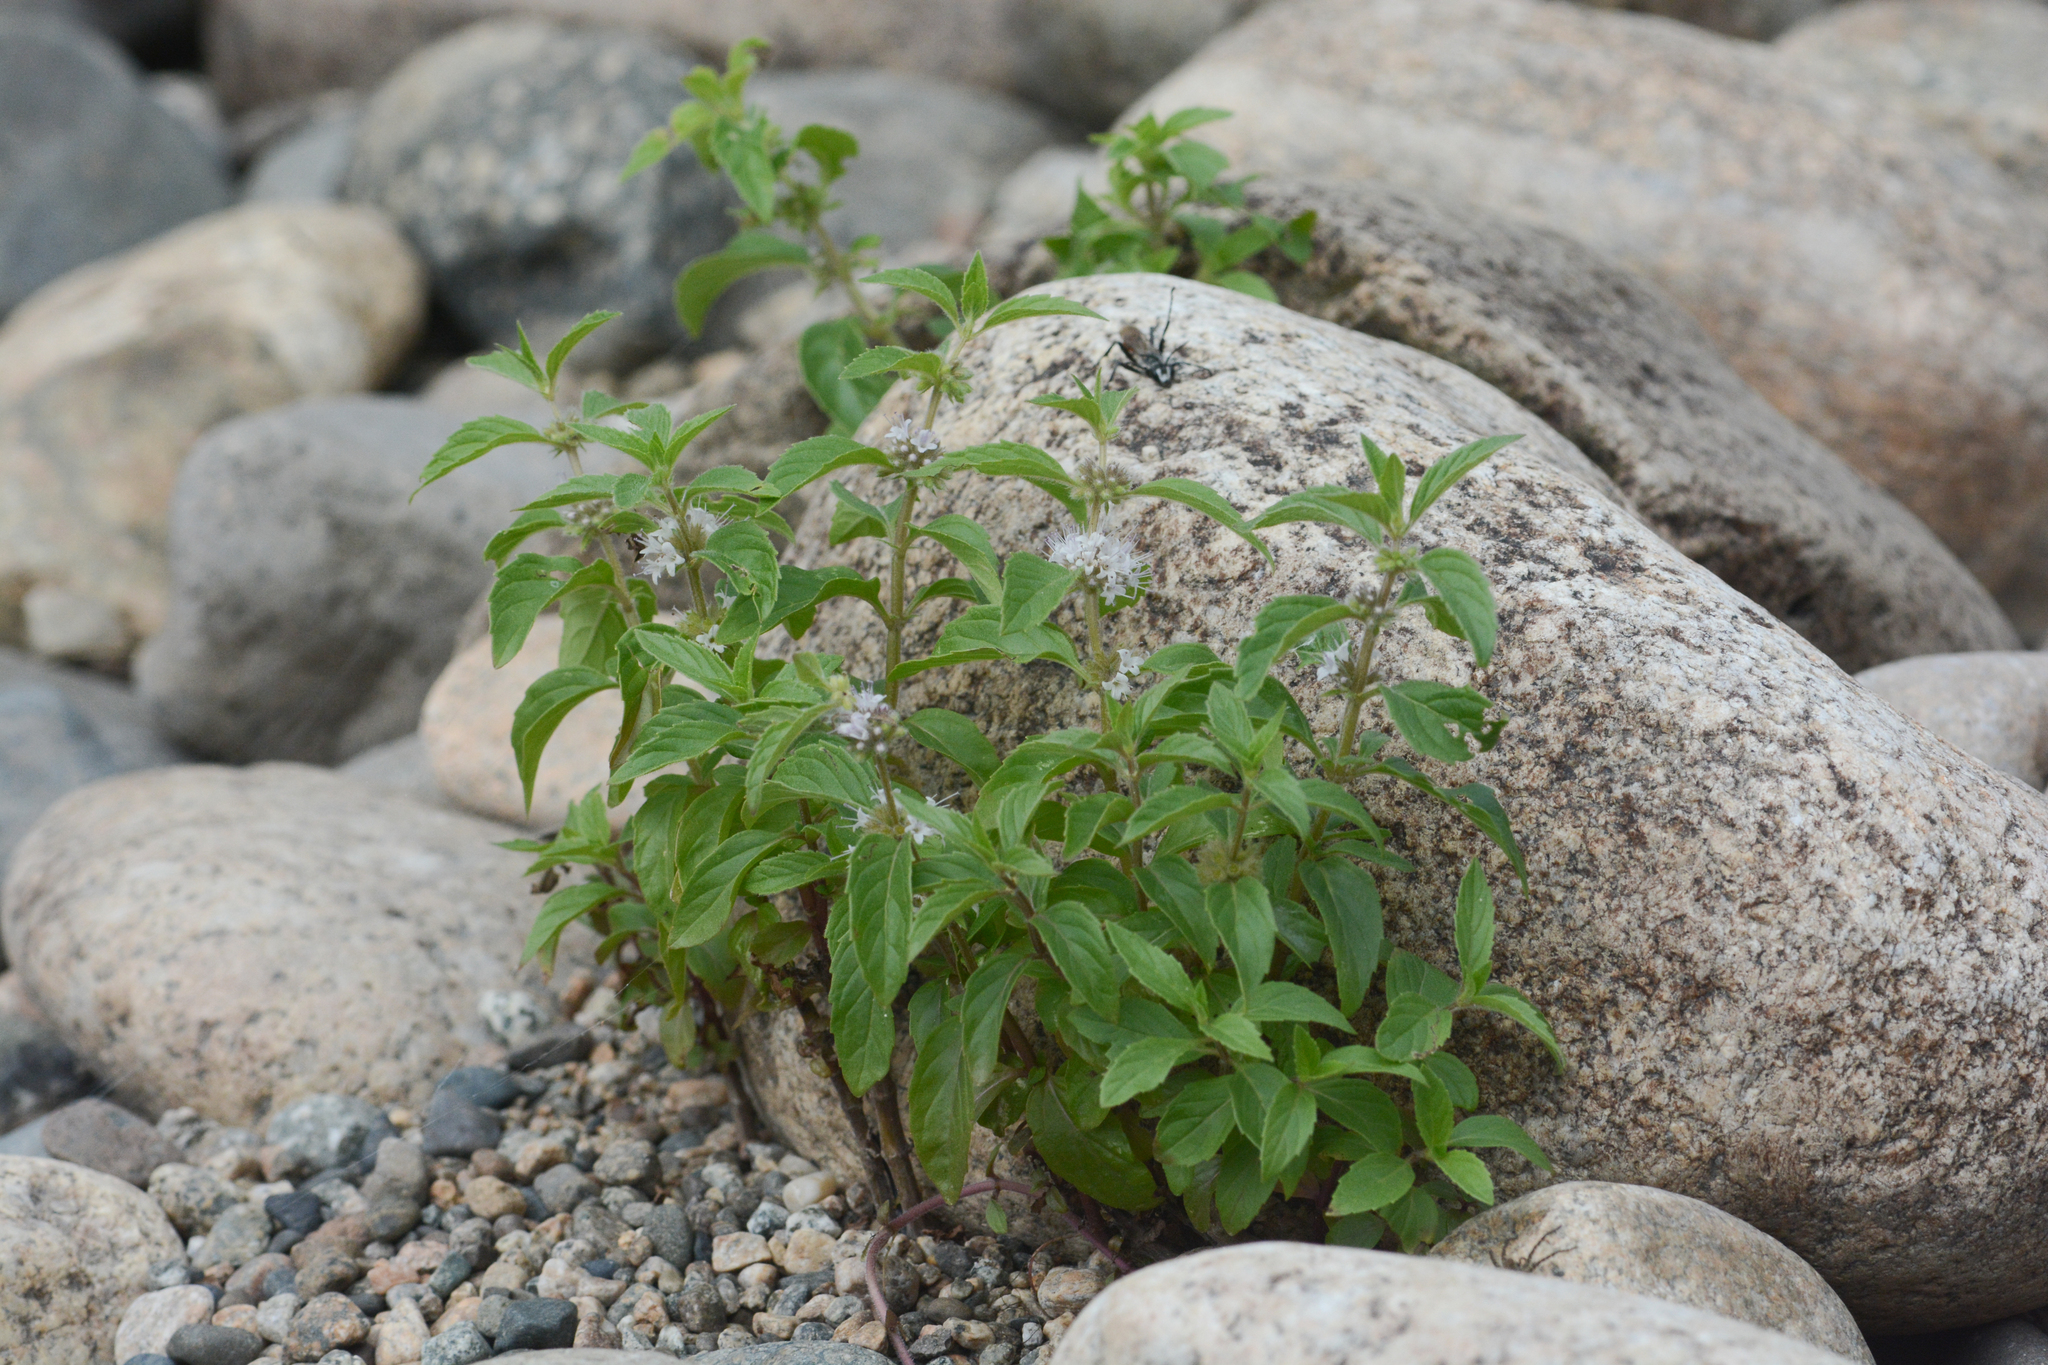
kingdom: Plantae
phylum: Tracheophyta
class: Magnoliopsida
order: Lamiales
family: Lamiaceae
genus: Mentha
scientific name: Mentha canadensis
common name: American corn mint
